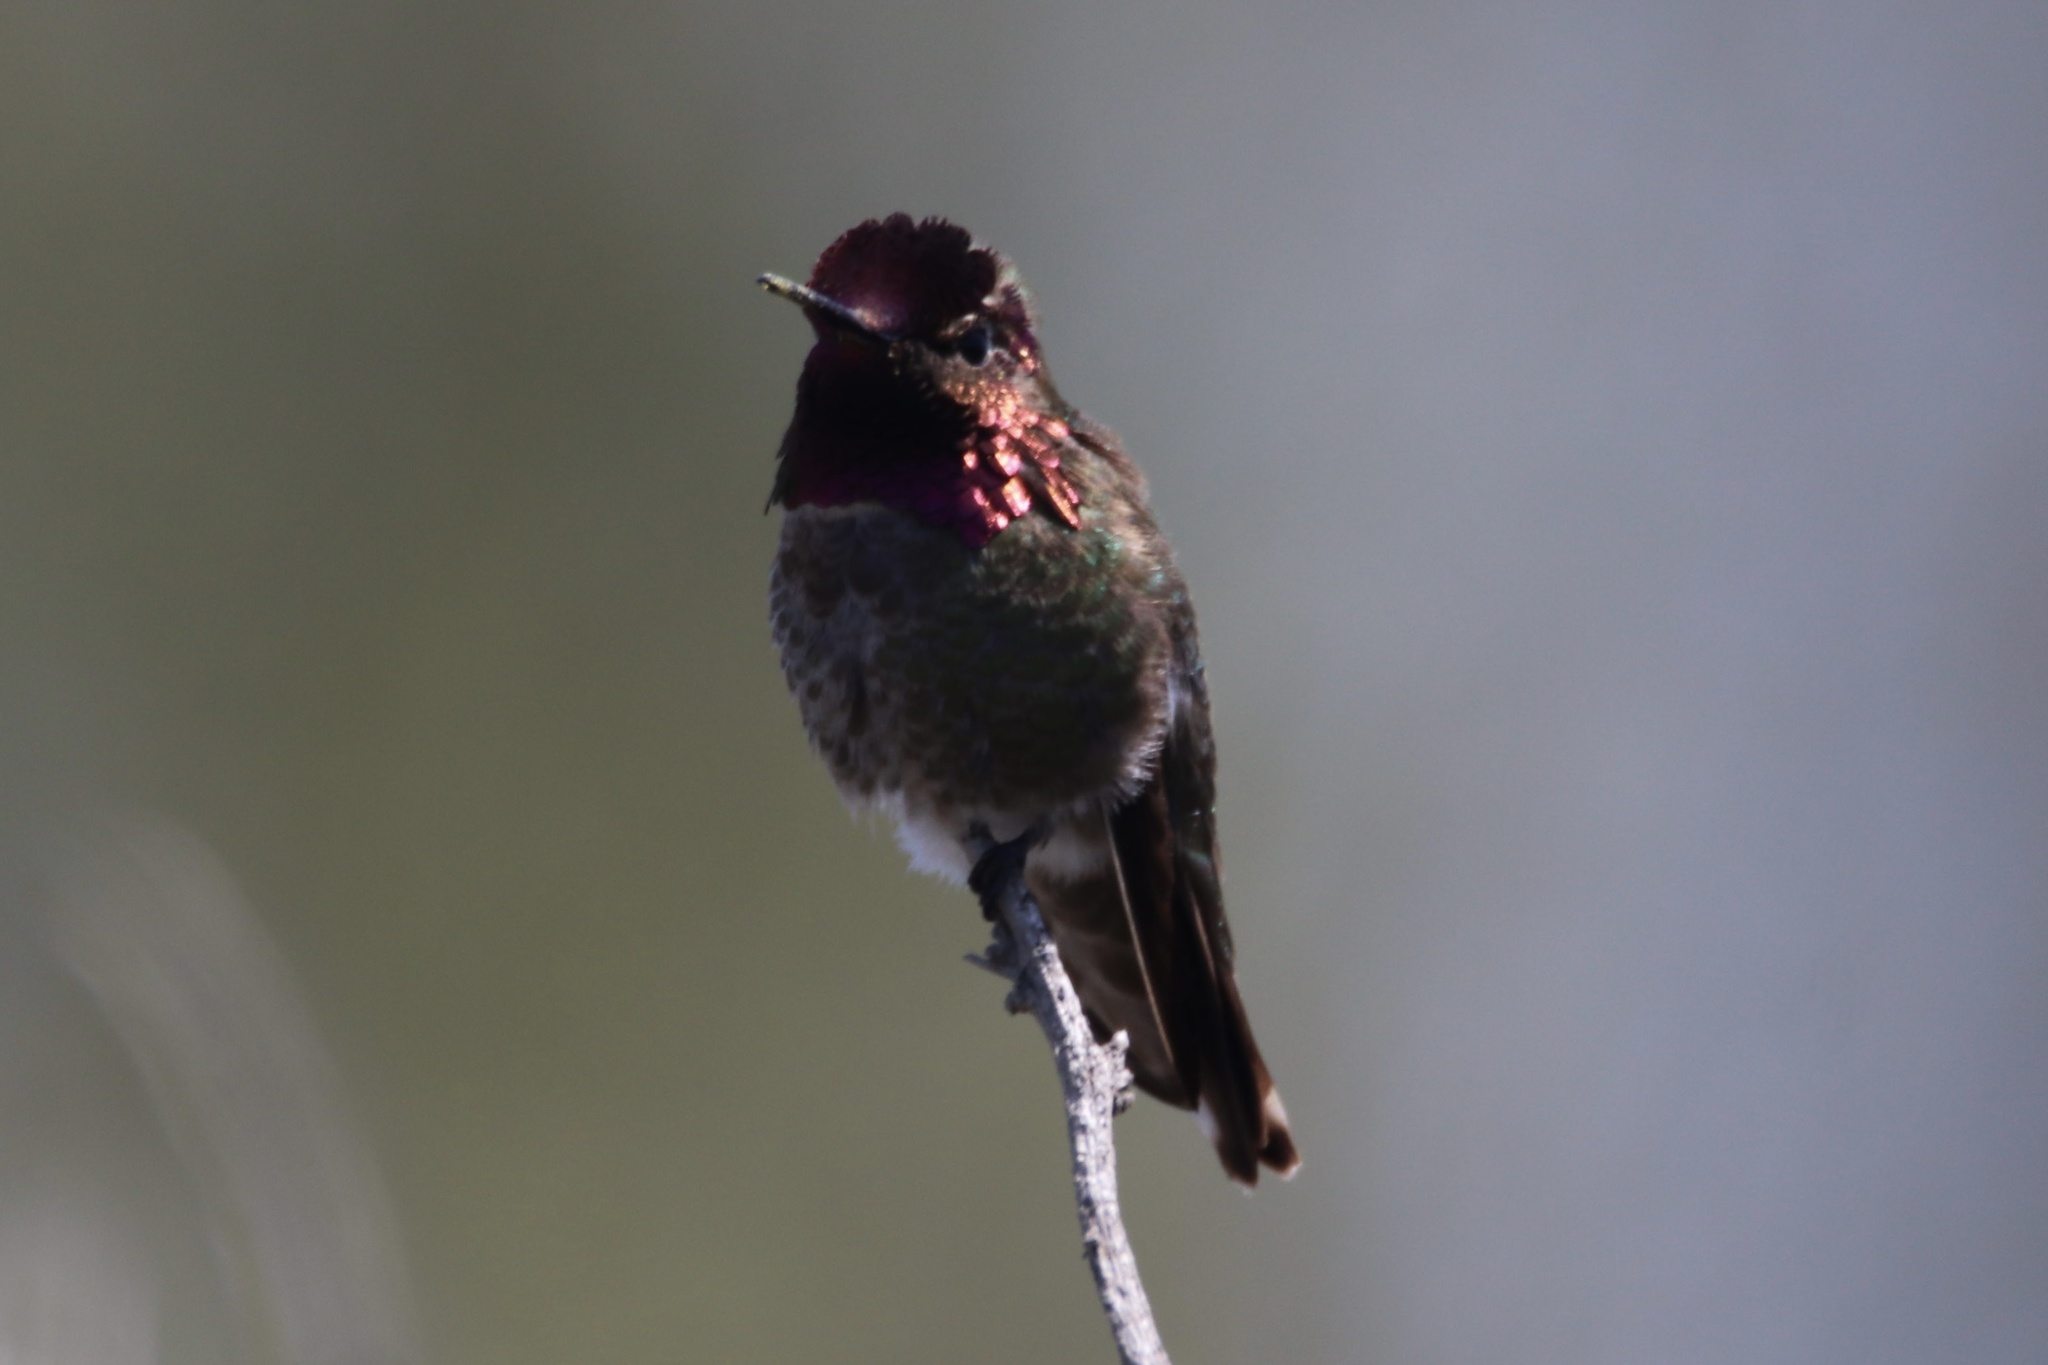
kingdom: Animalia
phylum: Chordata
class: Aves
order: Apodiformes
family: Trochilidae
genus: Calypte
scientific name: Calypte anna
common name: Anna's hummingbird
